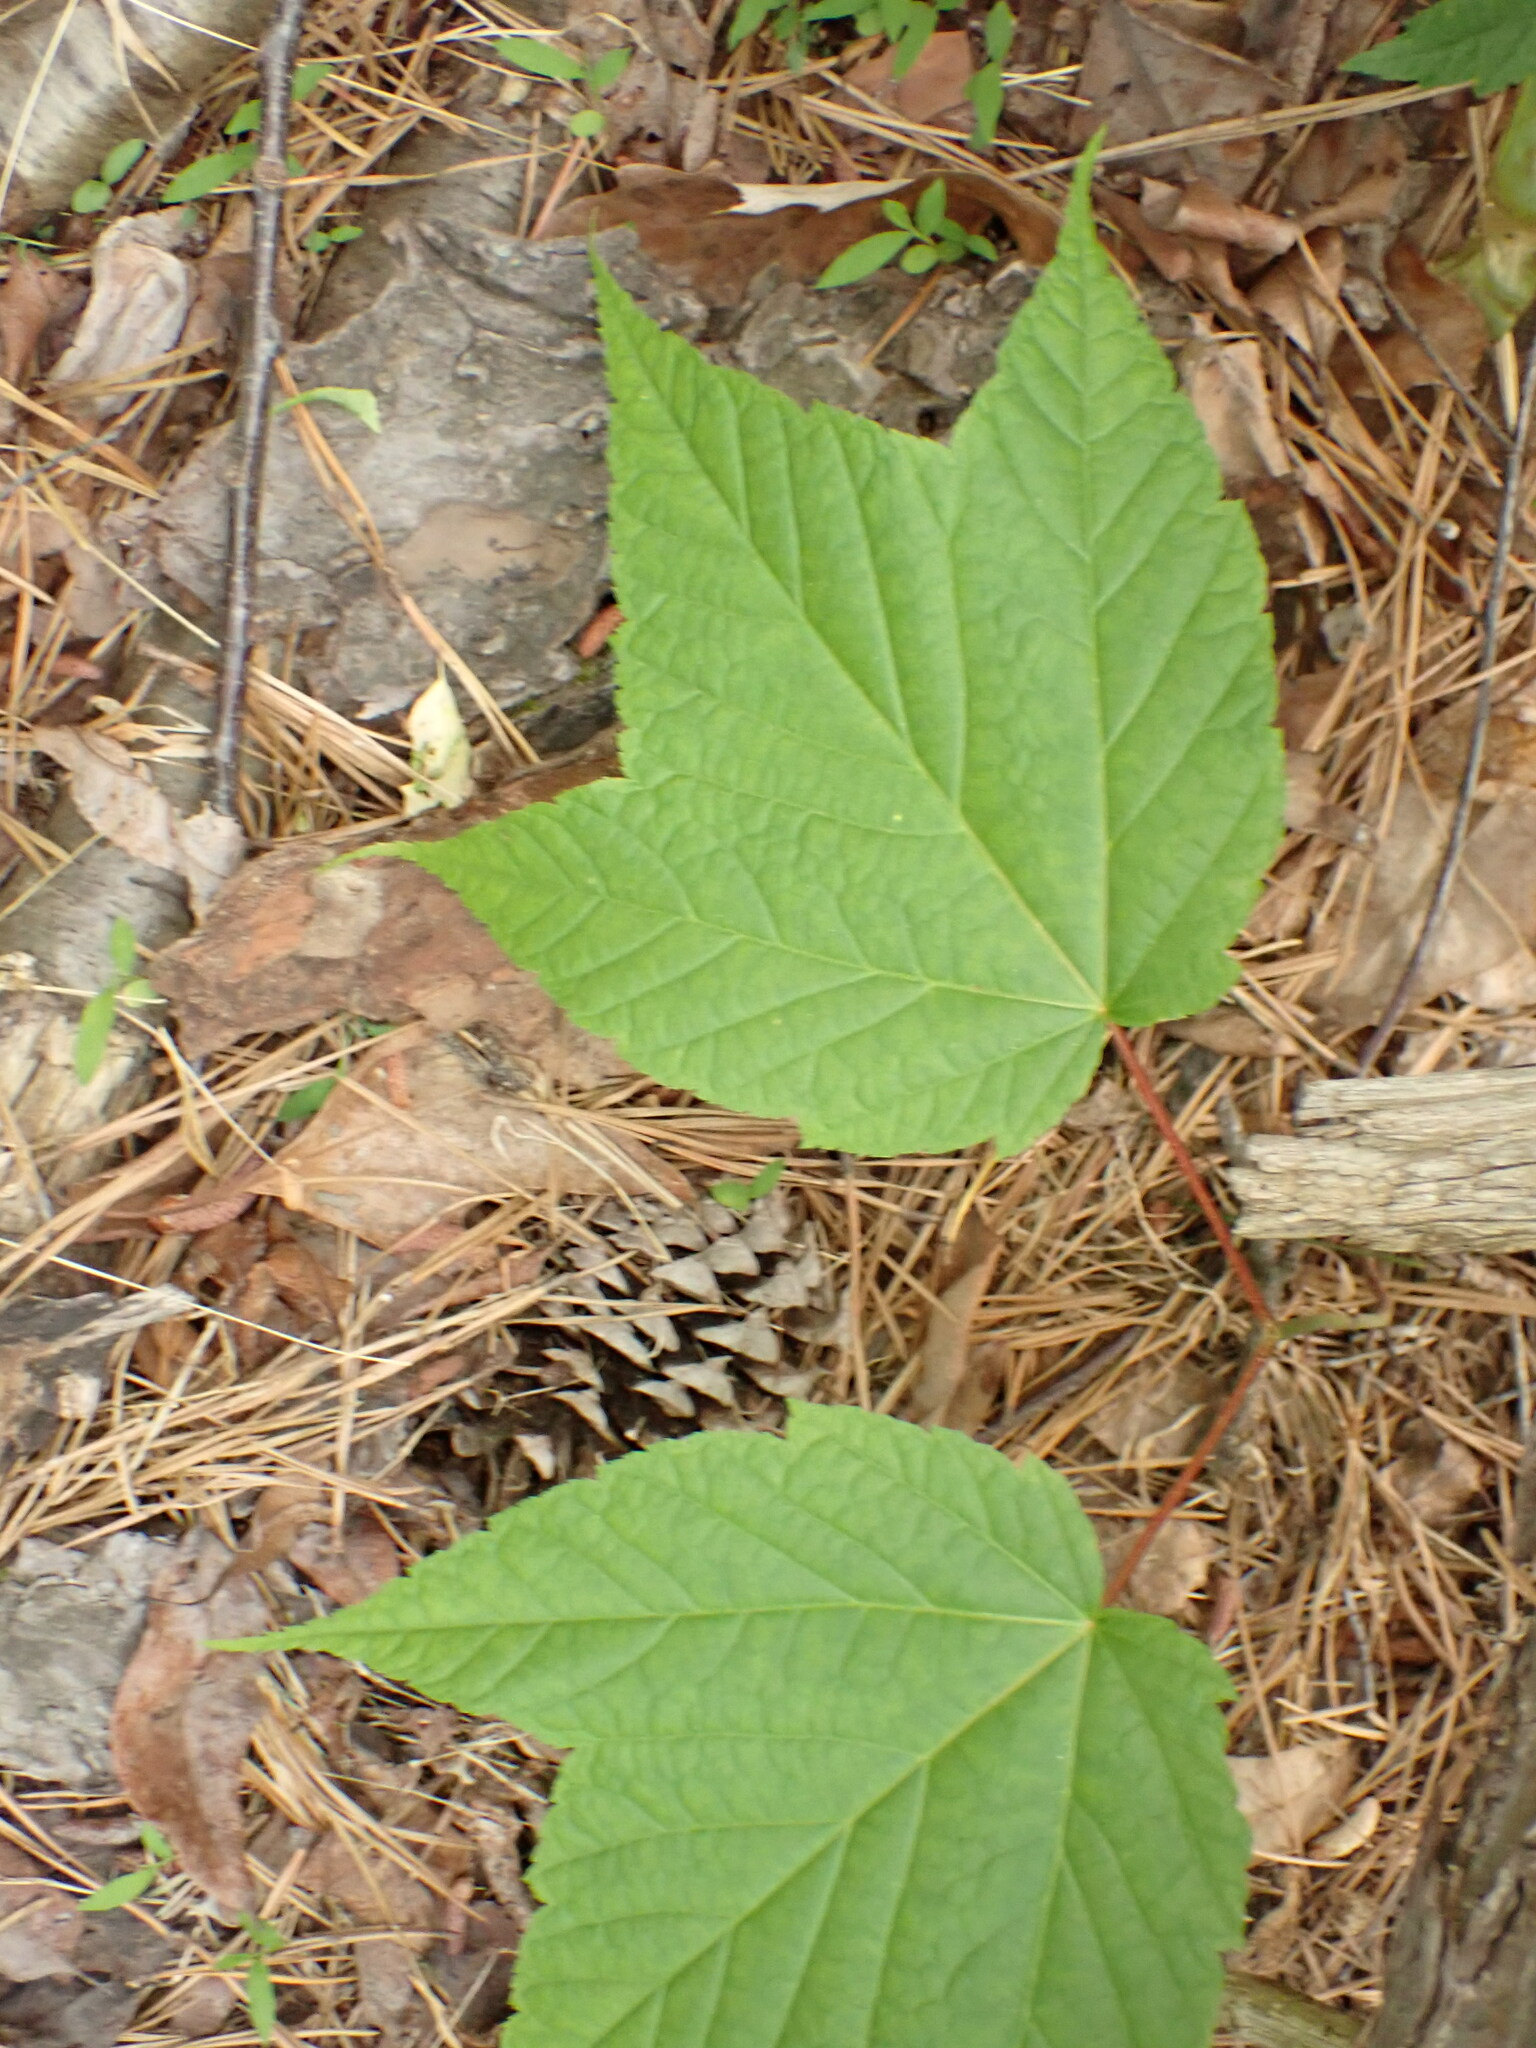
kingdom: Plantae
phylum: Tracheophyta
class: Magnoliopsida
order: Sapindales
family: Sapindaceae
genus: Acer
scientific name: Acer pensylvanicum
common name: Moosewood
